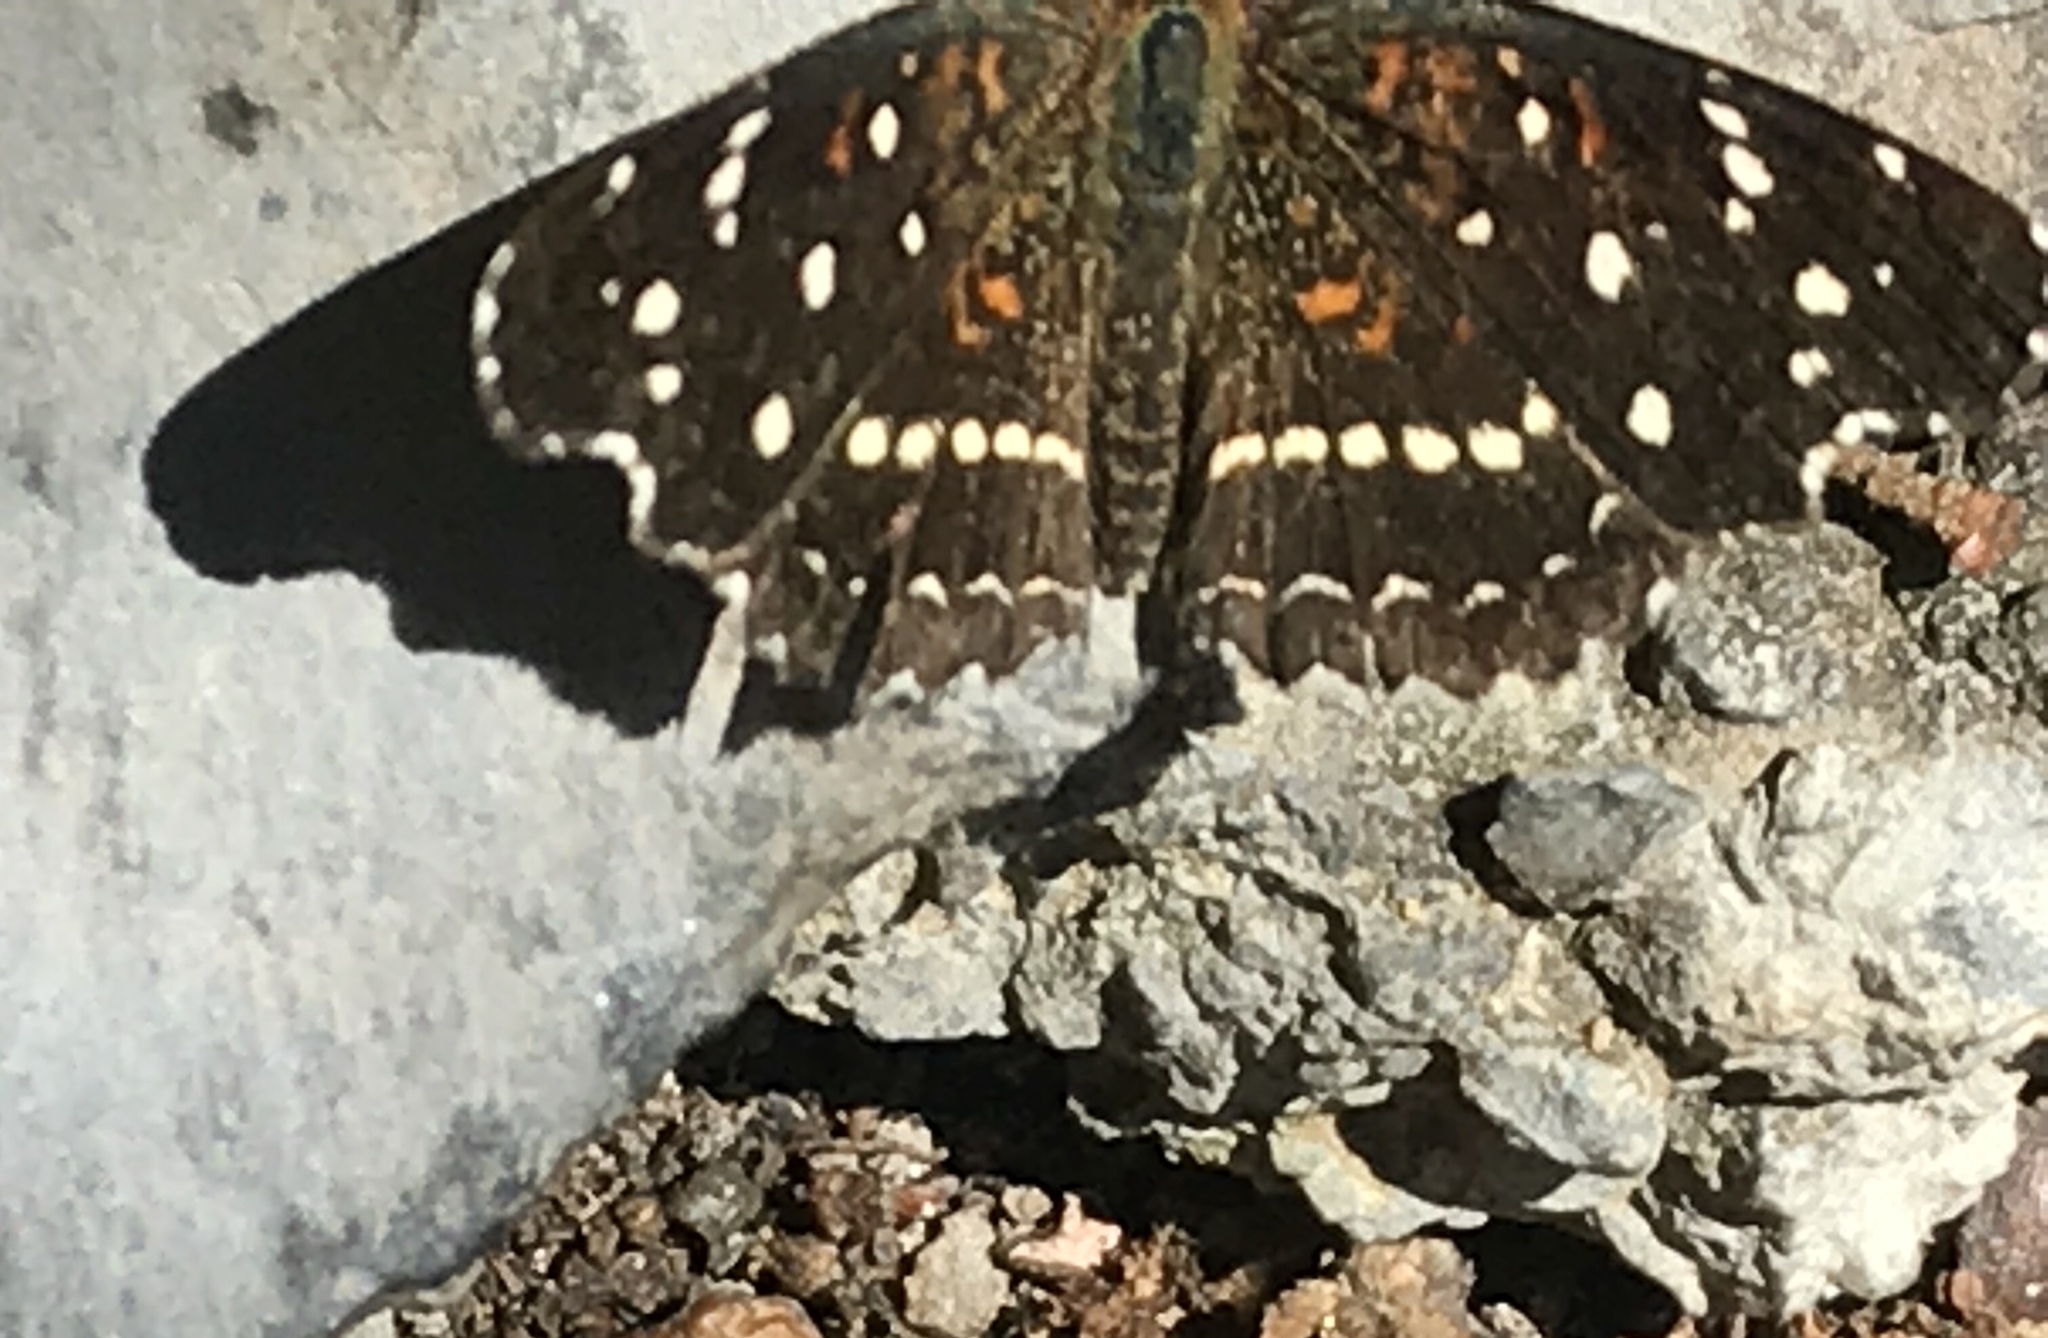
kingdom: Animalia
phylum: Arthropoda
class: Insecta
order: Lepidoptera
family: Nymphalidae
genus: Anthanassa
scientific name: Anthanassa texana
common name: Texan crescent
